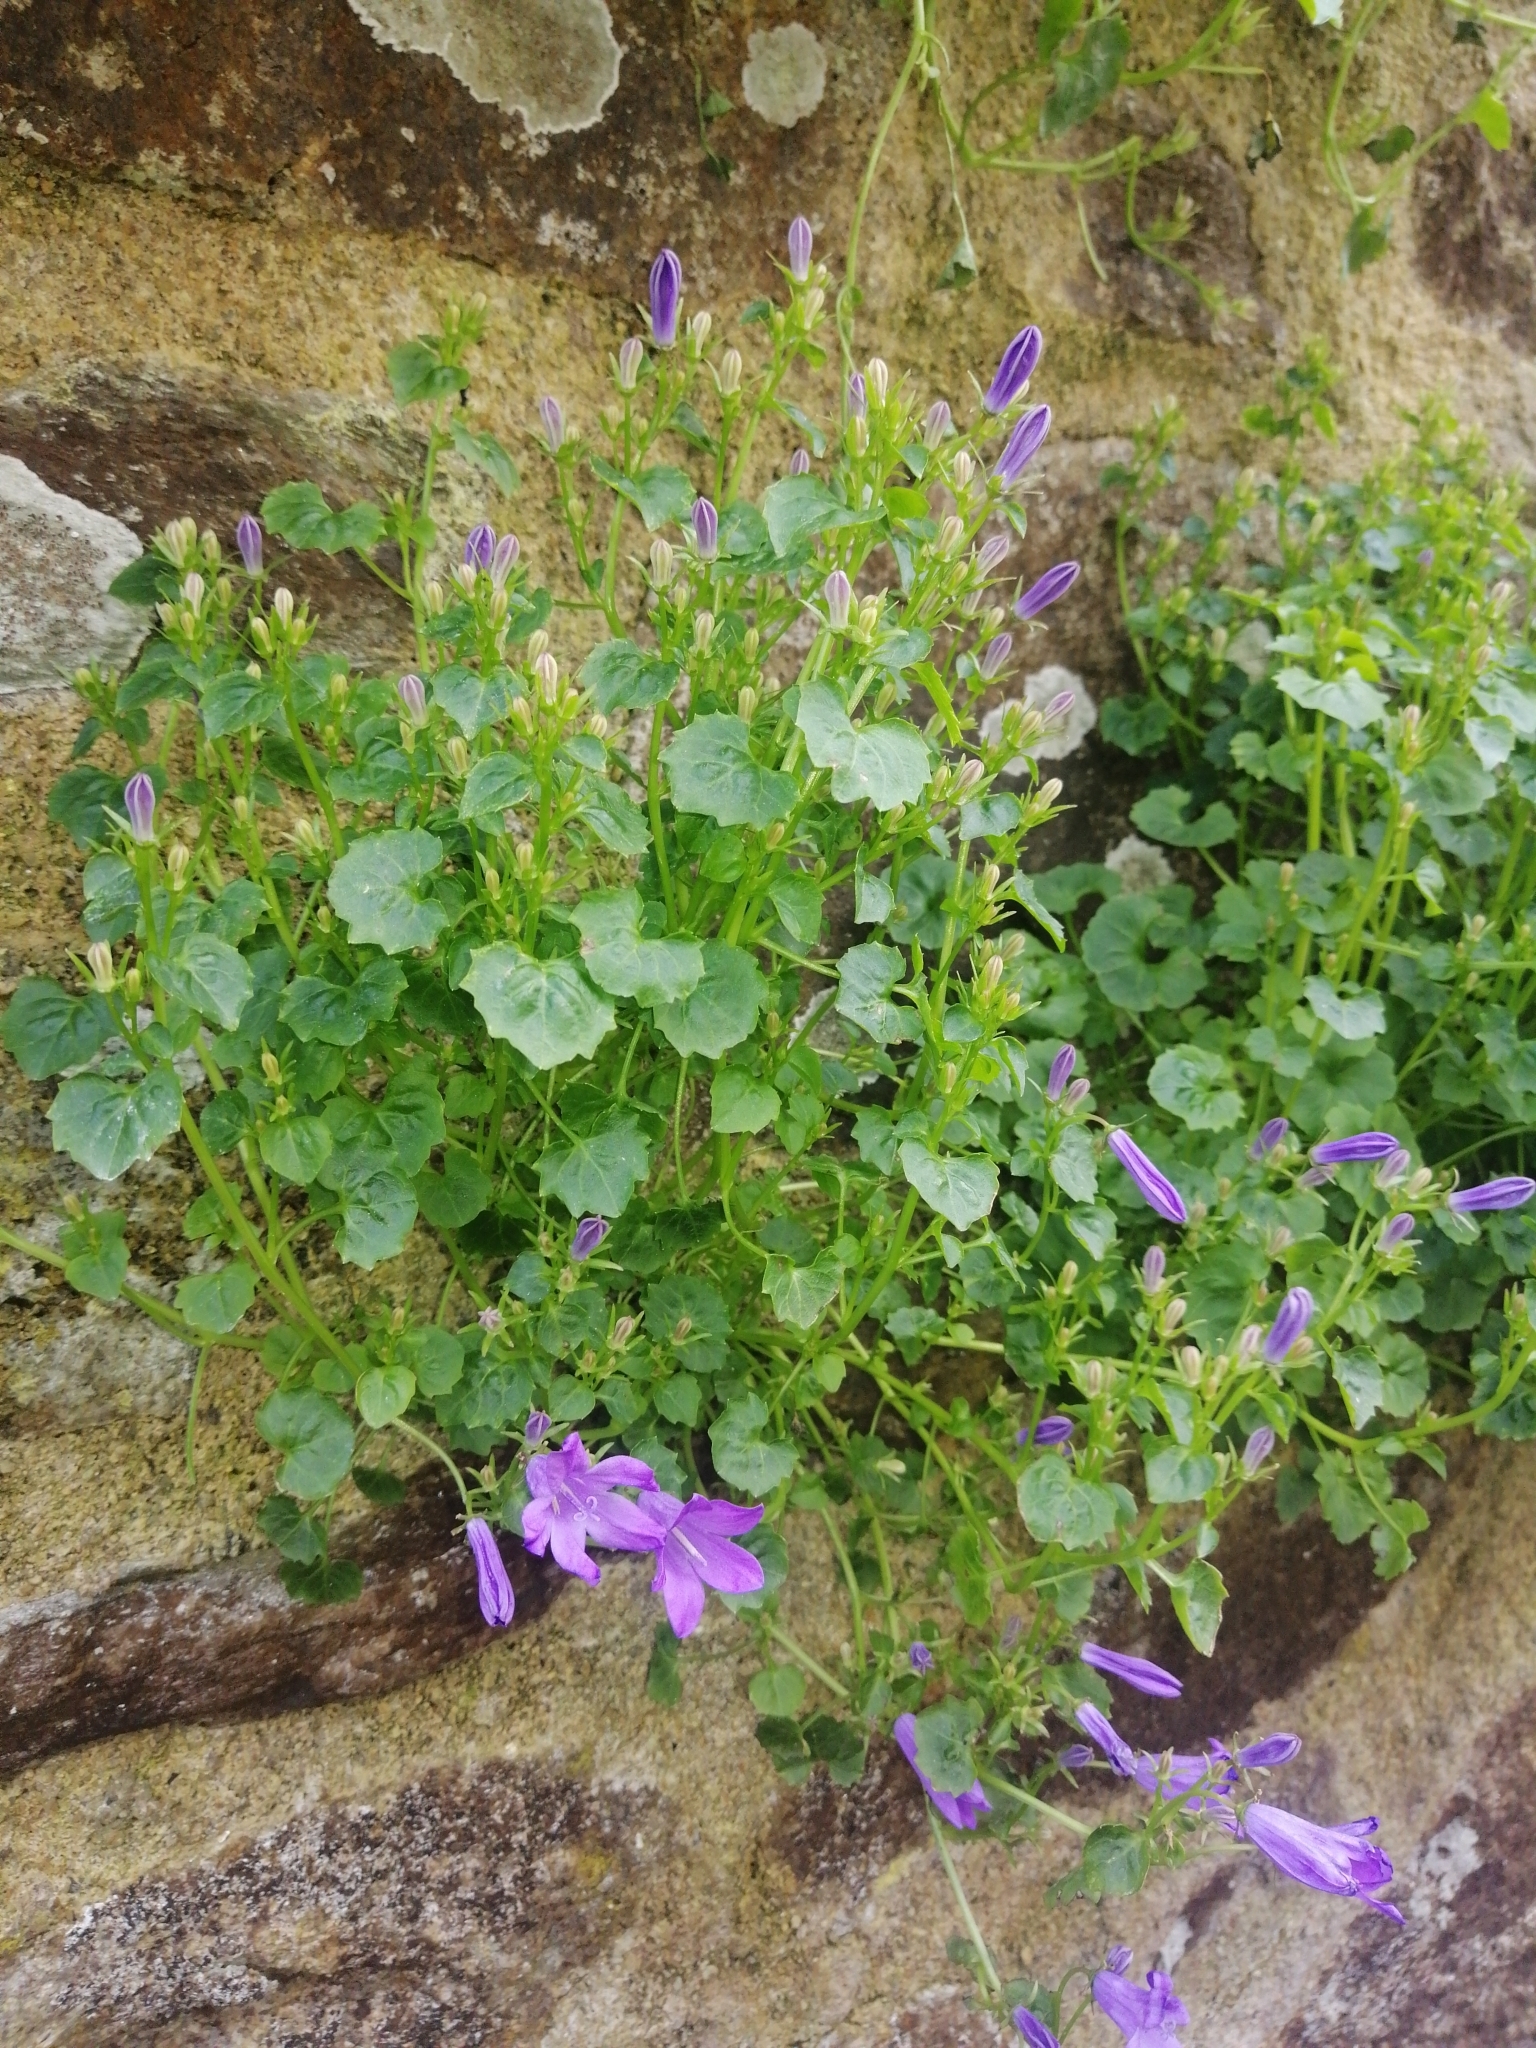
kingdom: Plantae
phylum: Tracheophyta
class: Magnoliopsida
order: Asterales
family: Campanulaceae
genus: Campanula
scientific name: Campanula portenschlagiana
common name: Adria bellflower
